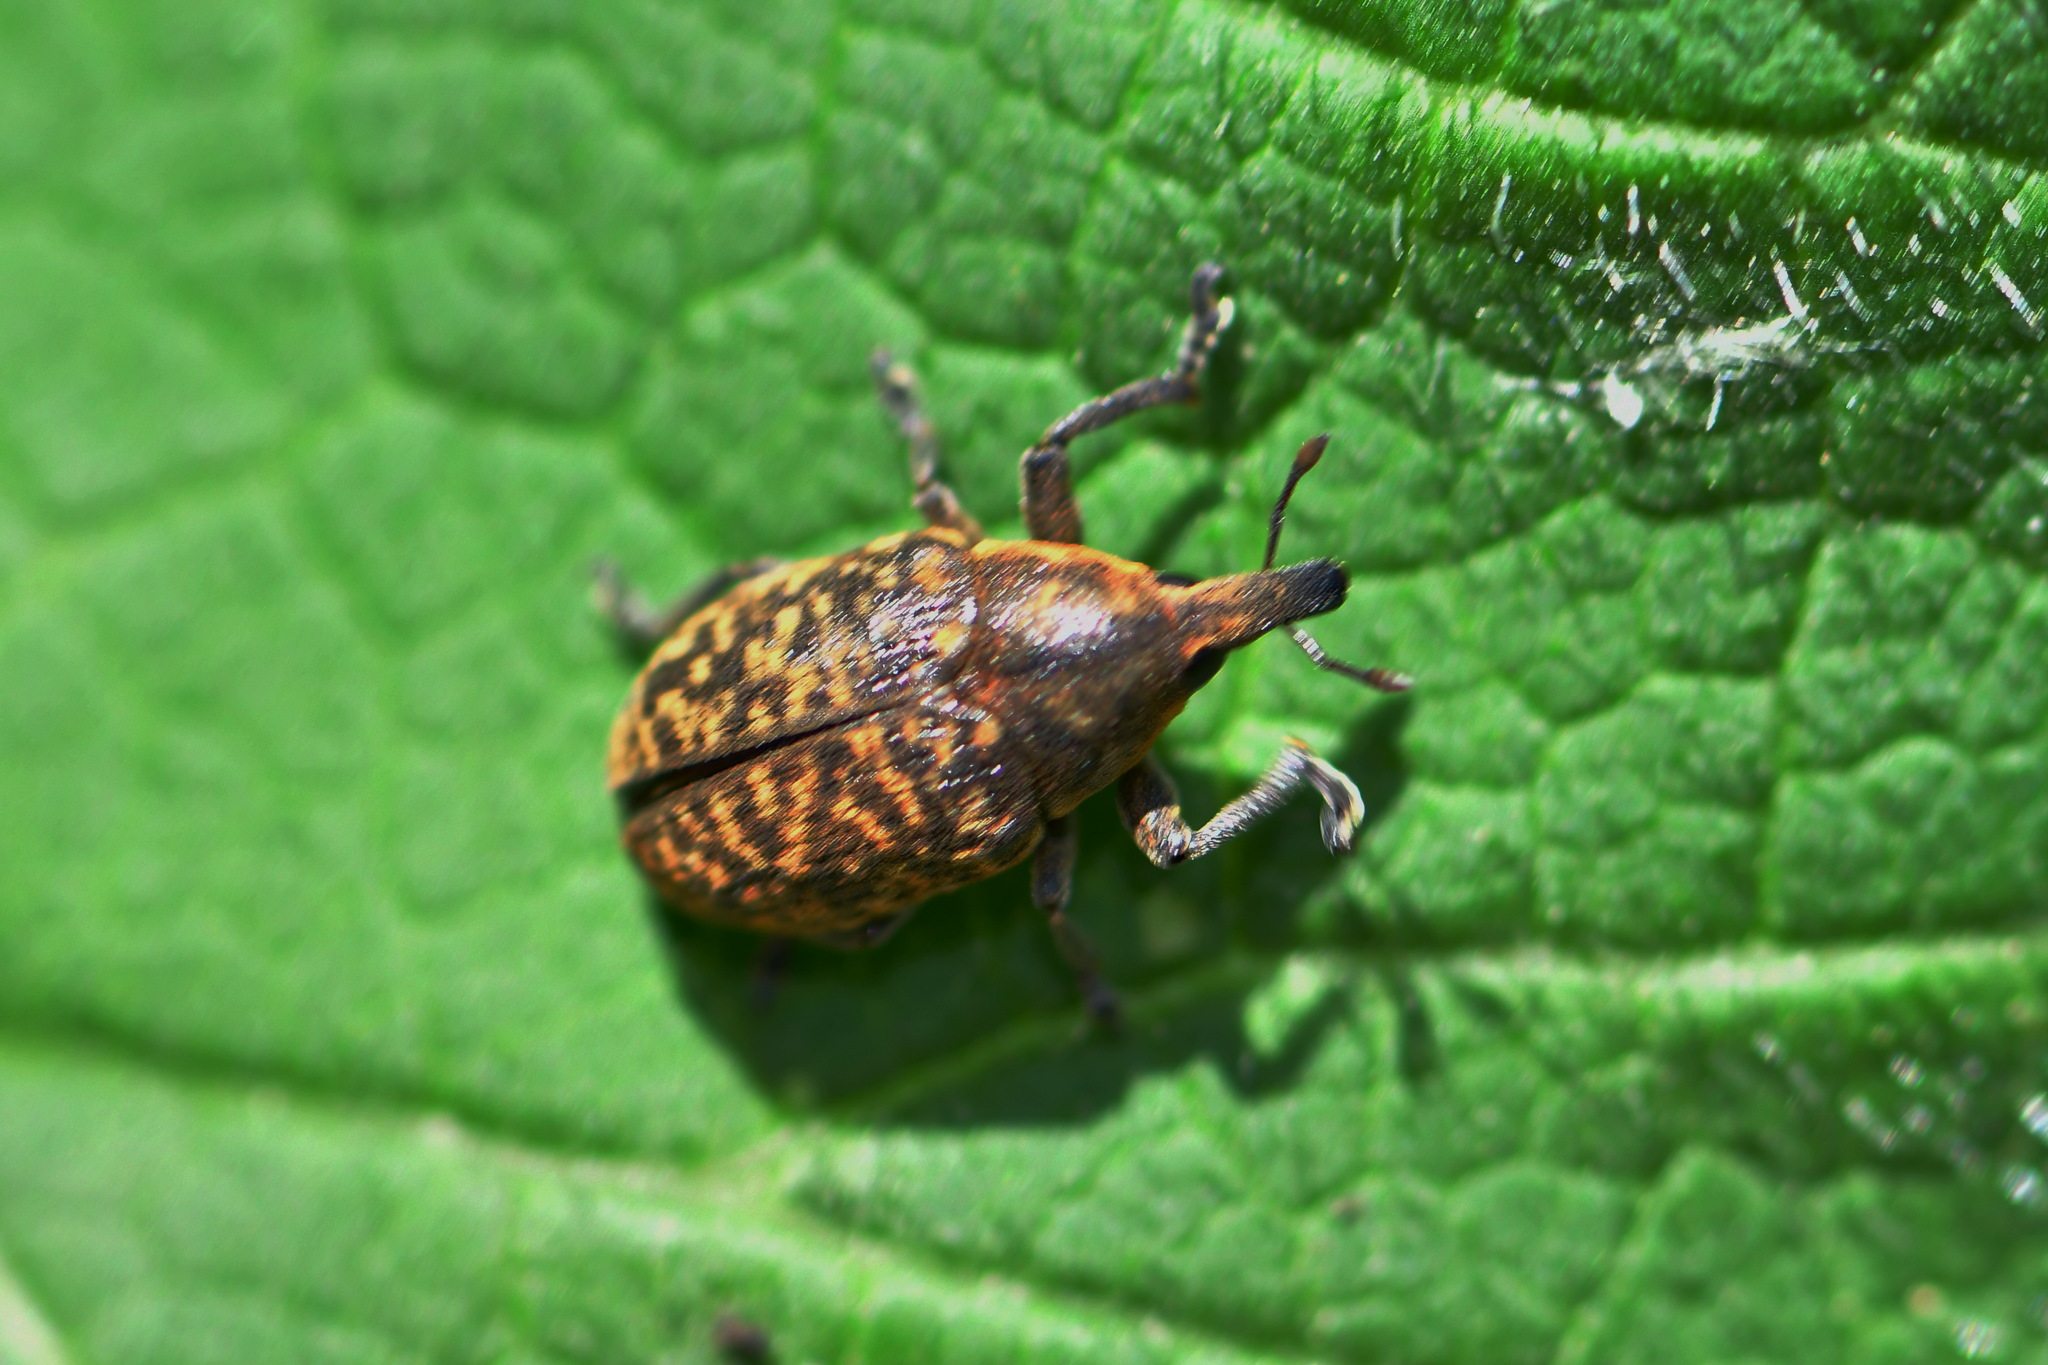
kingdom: Animalia
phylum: Arthropoda
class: Insecta
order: Coleoptera
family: Curculionidae
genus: Larinus
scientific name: Larinus turbinatus
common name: Weevil
